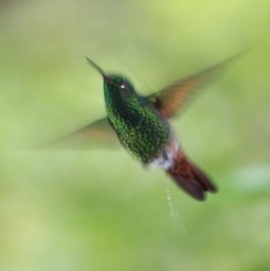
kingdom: Animalia
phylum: Chordata
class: Aves
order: Apodiformes
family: Trochilidae
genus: Saucerottia
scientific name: Saucerottia beryllina
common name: Berylline hummingbird
